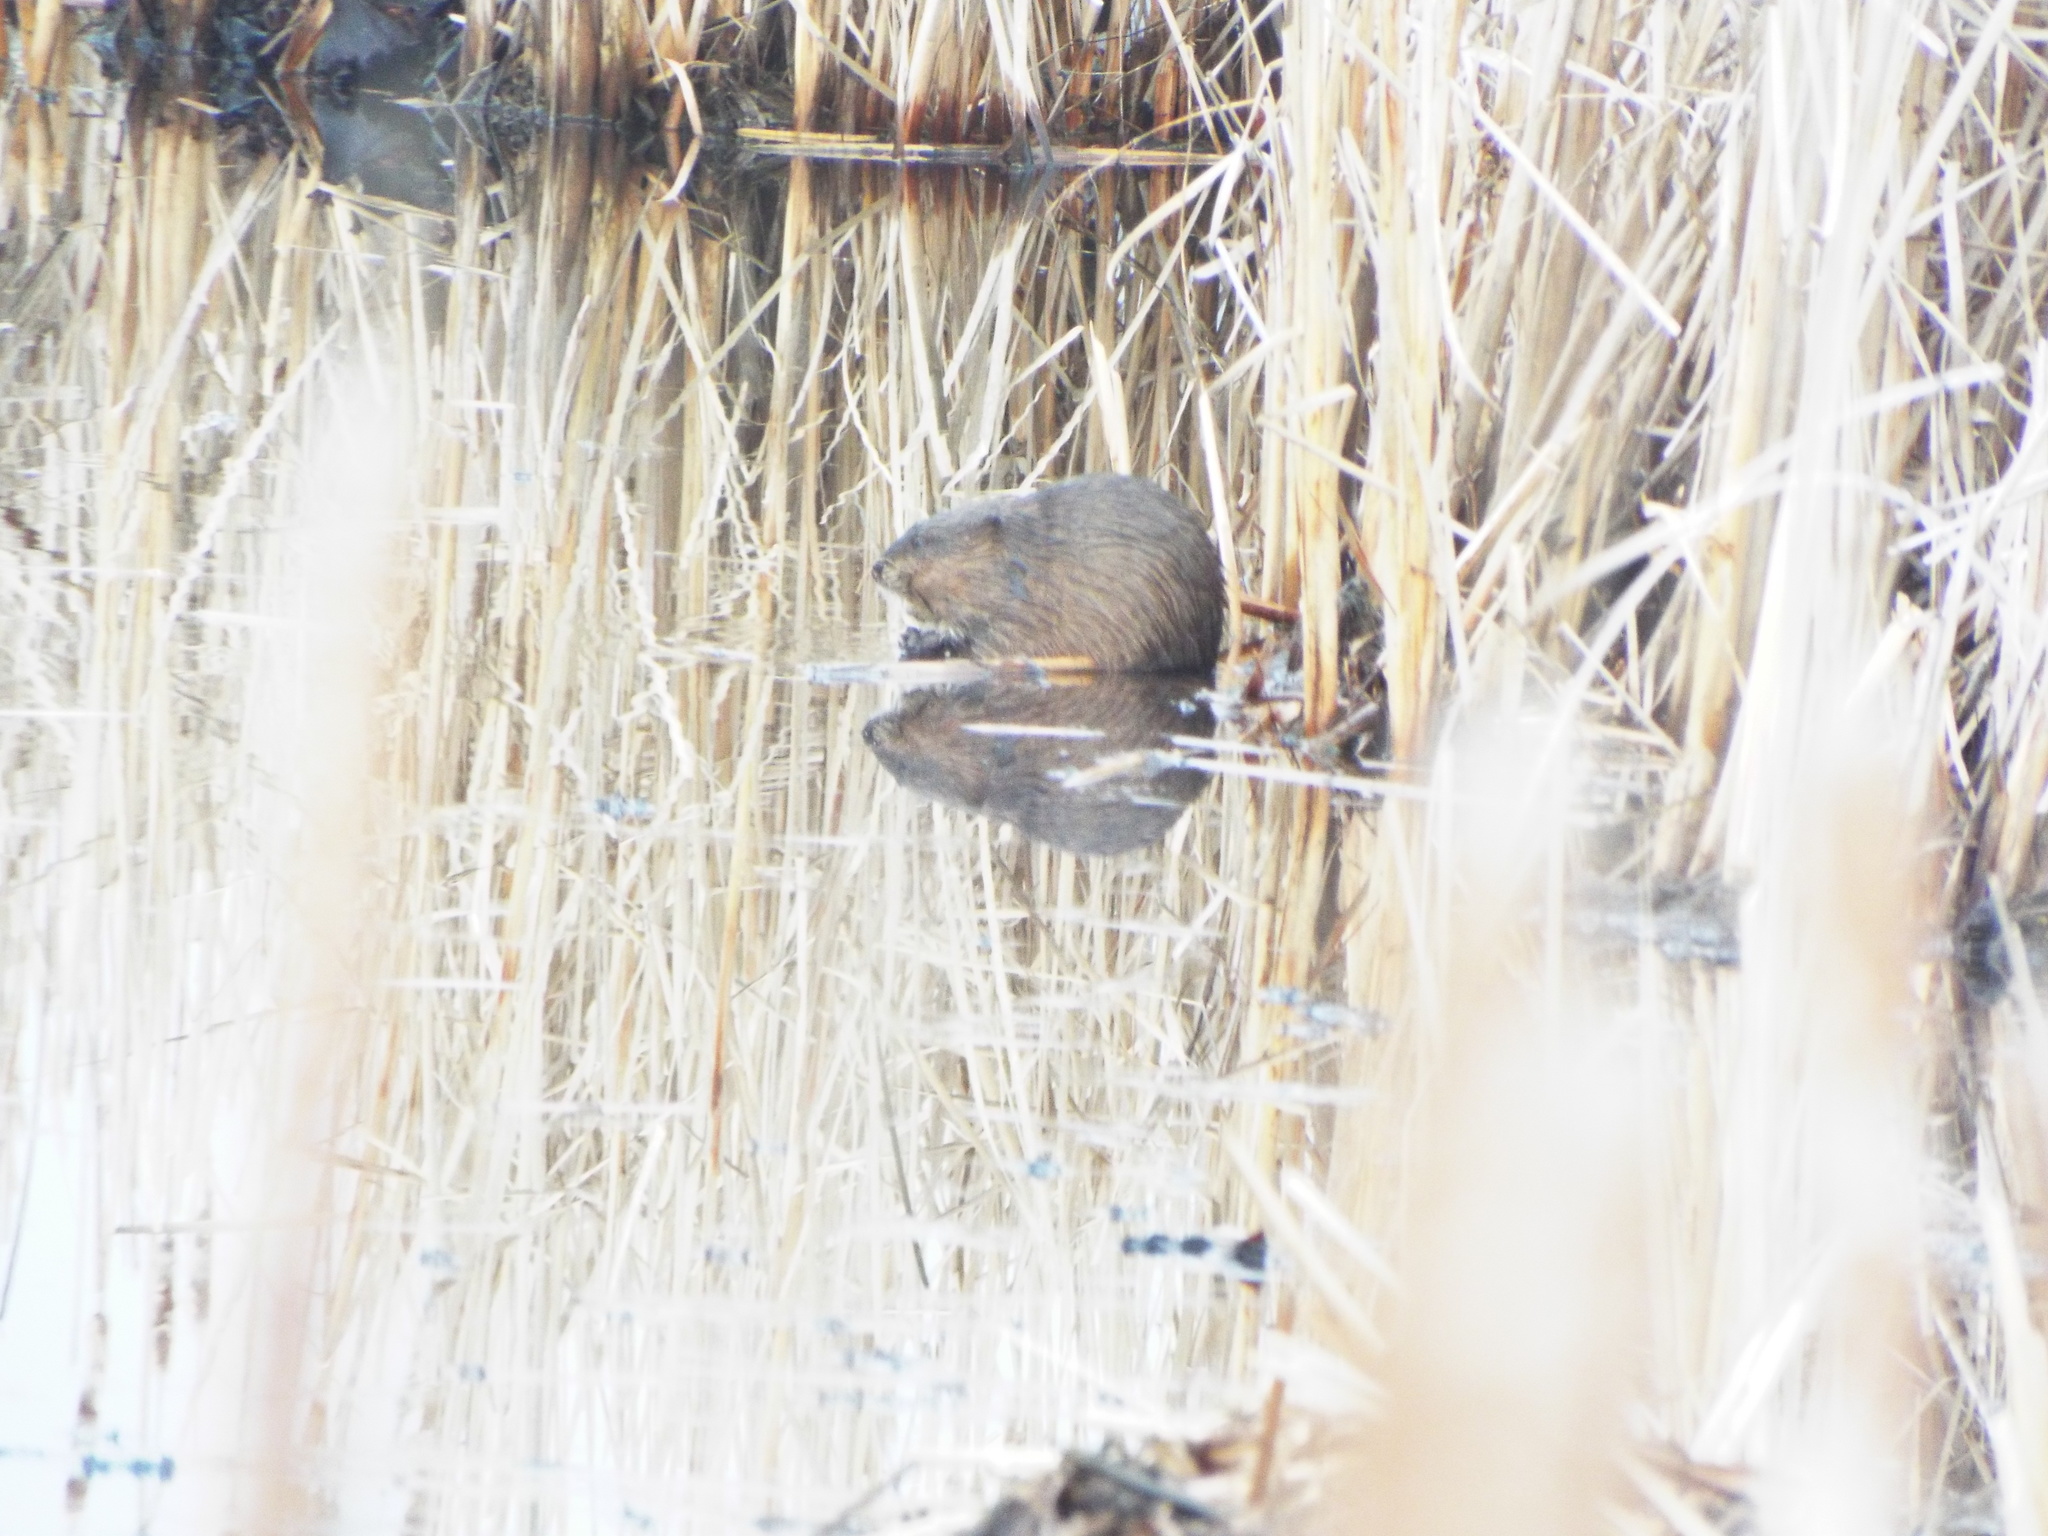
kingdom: Animalia
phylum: Chordata
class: Mammalia
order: Rodentia
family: Cricetidae
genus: Ondatra
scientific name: Ondatra zibethicus
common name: Muskrat
